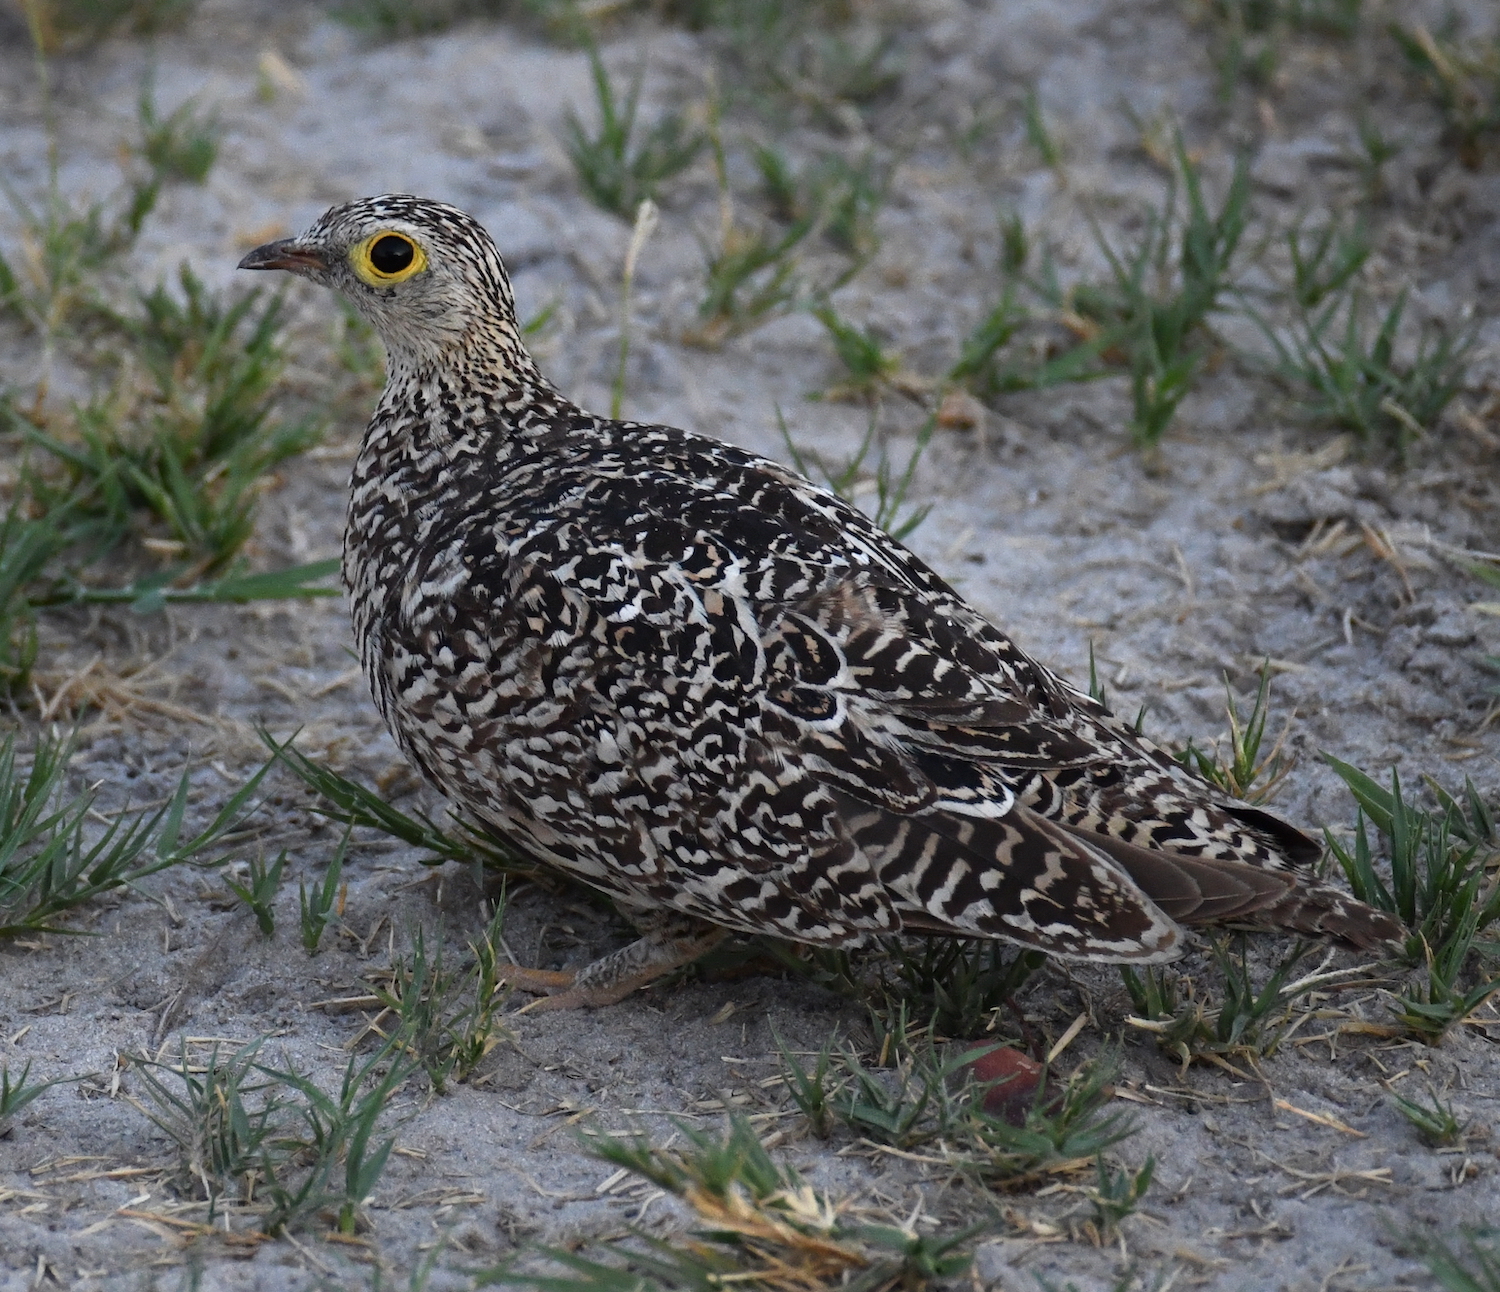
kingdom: Animalia
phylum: Chordata
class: Aves
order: Pteroclidiformes
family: Pteroclididae
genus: Pterocles
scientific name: Pterocles bicinctus
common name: Double-banded sandgrouse
